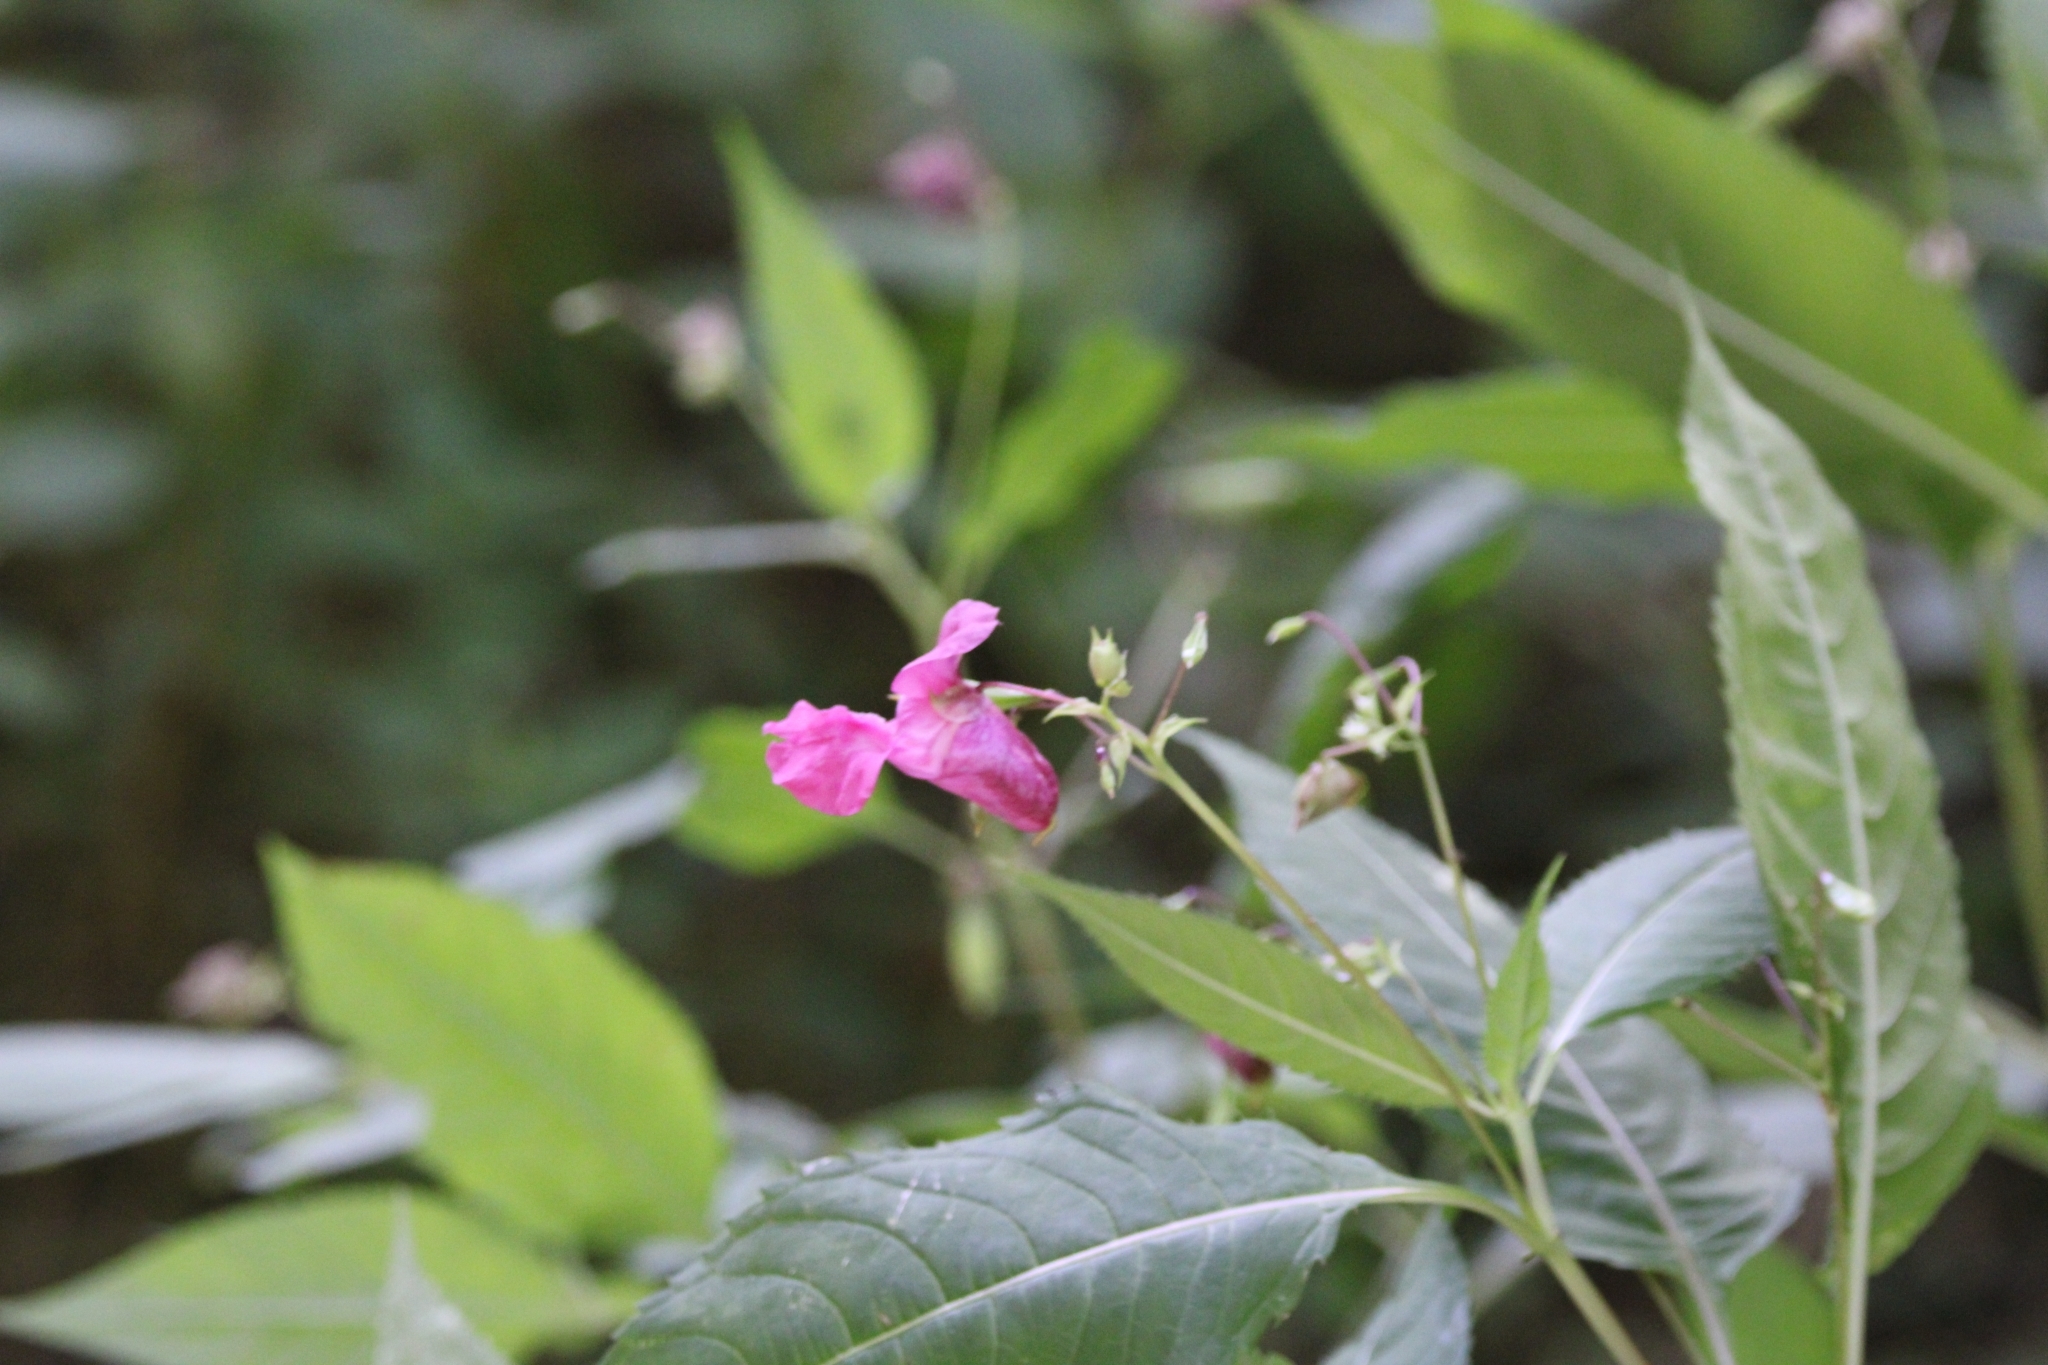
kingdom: Plantae
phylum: Tracheophyta
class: Magnoliopsida
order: Ericales
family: Balsaminaceae
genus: Impatiens
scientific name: Impatiens glandulifera
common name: Himalayan balsam
